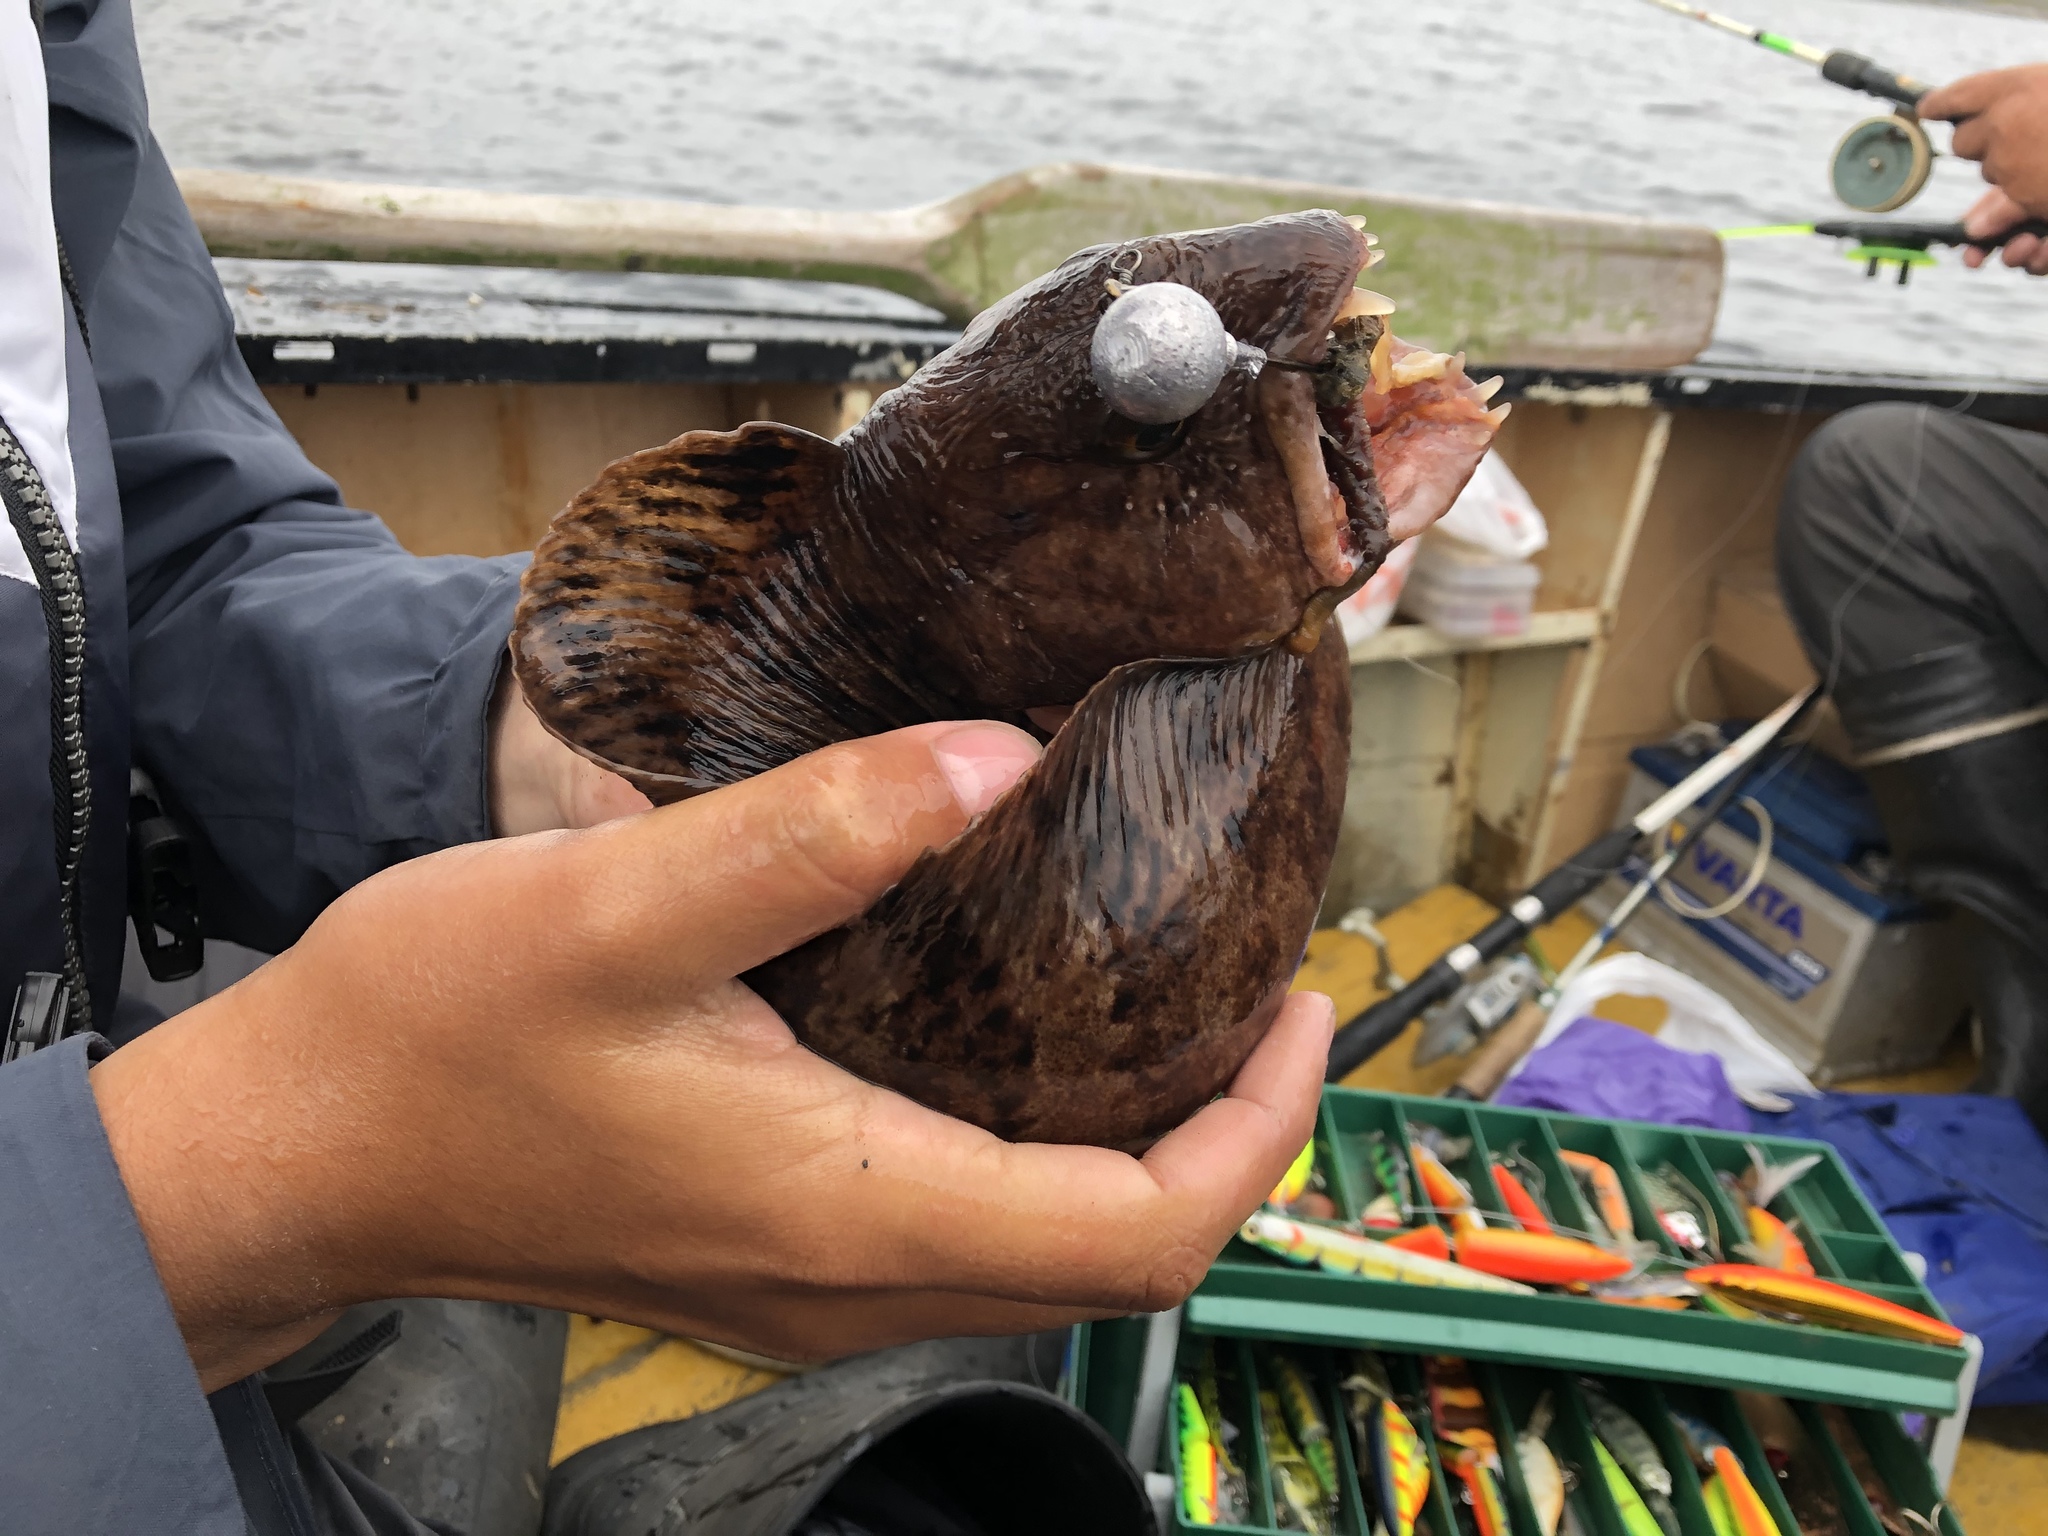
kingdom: Animalia
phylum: Chordata
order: Perciformes
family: Anarhichadidae
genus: Anarhichas
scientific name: Anarhichas lupus
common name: Wolf-fish
